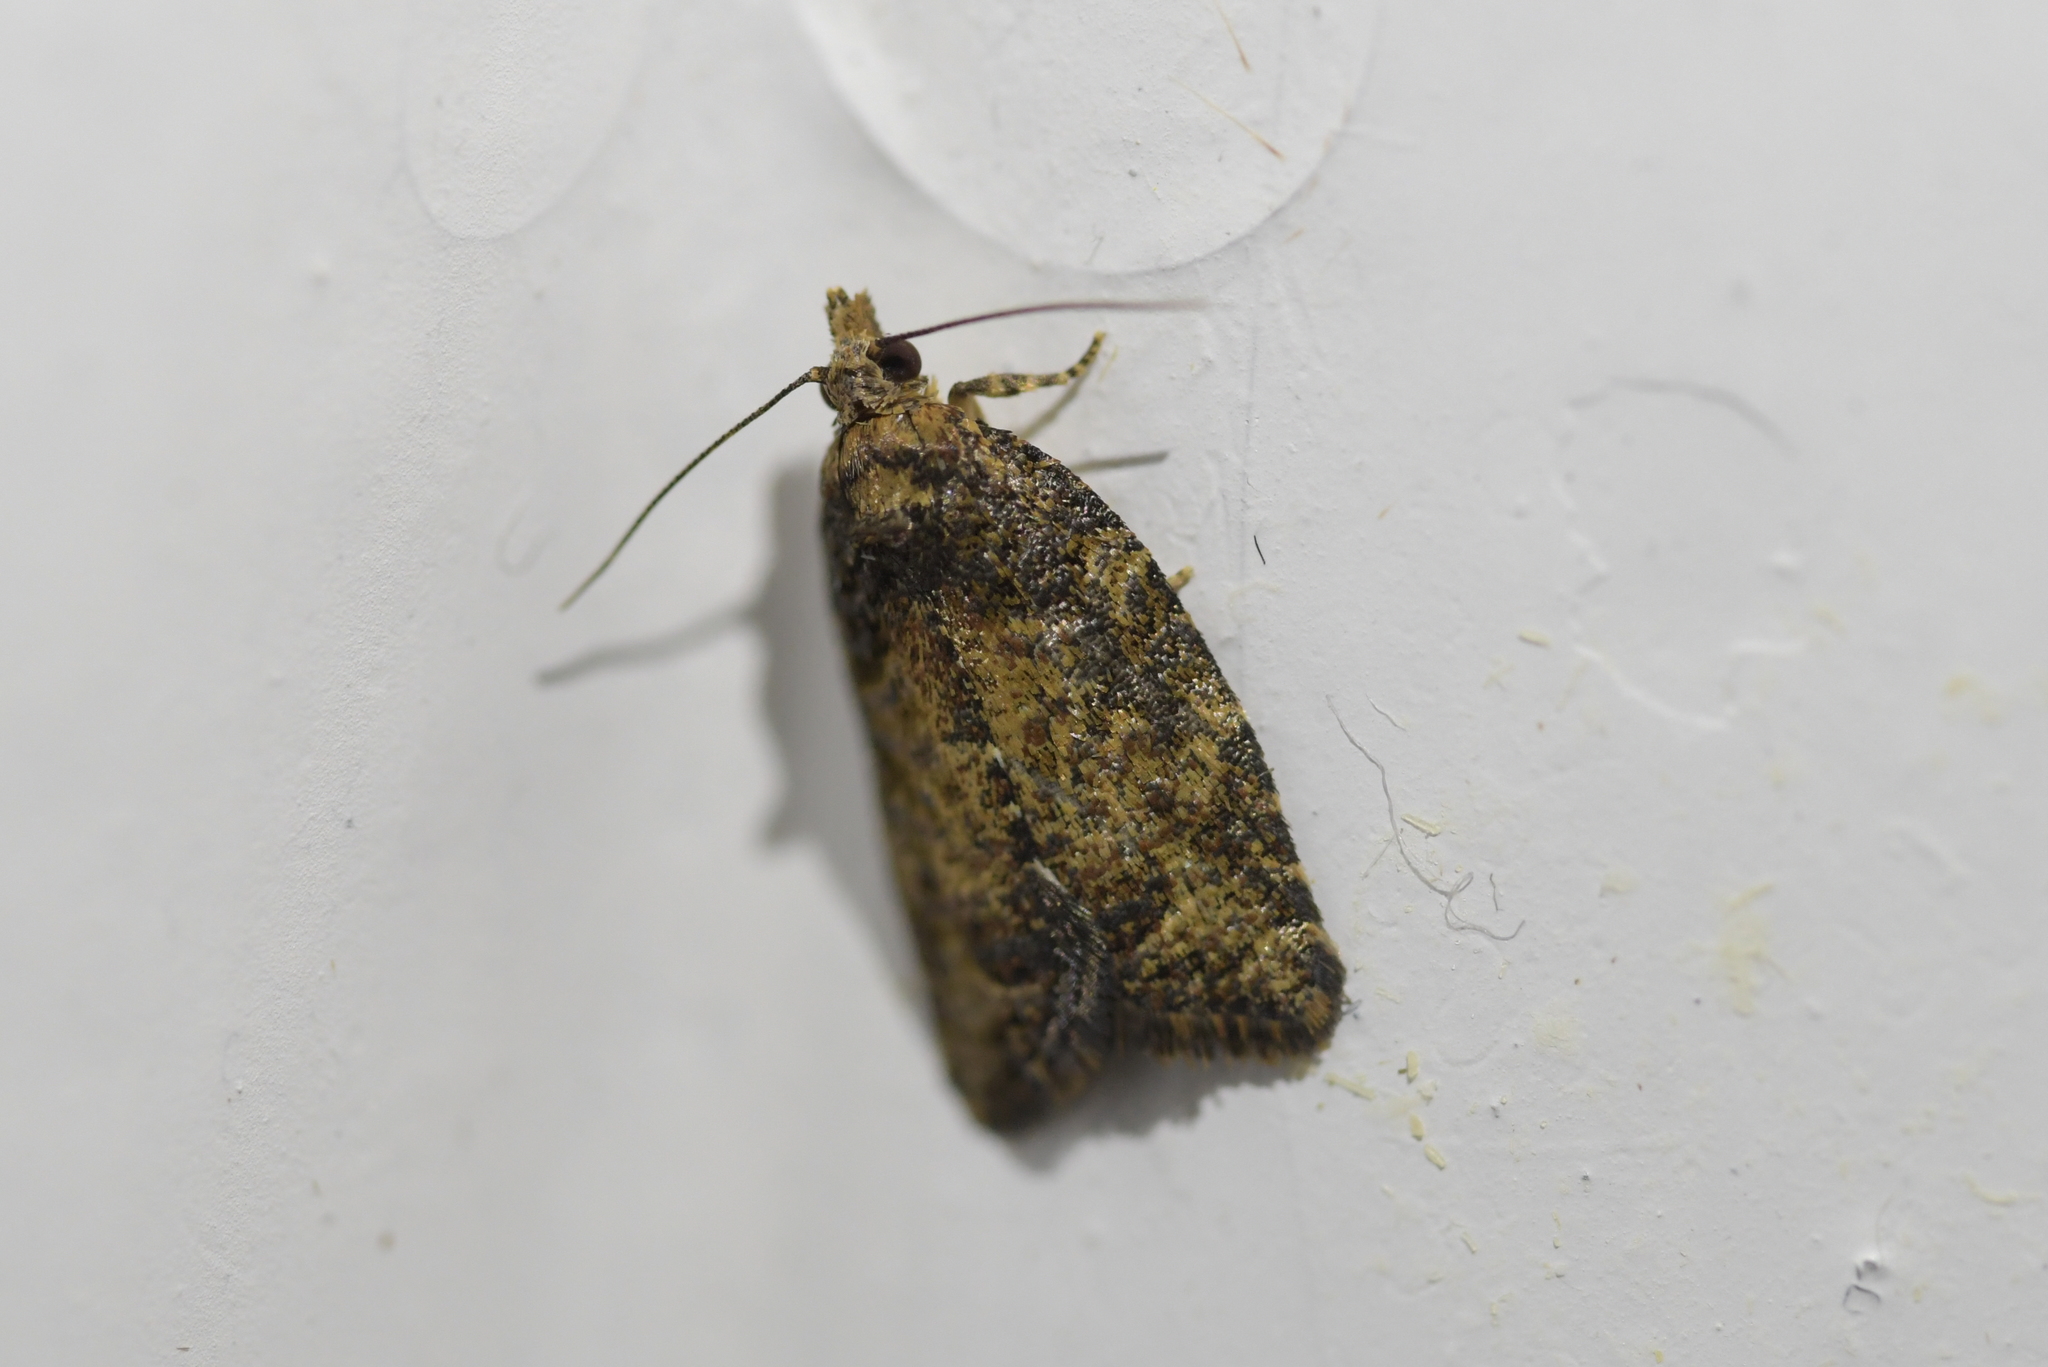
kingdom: Animalia
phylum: Arthropoda
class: Insecta
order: Lepidoptera
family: Tortricidae
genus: Capua
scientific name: Capua intractana
